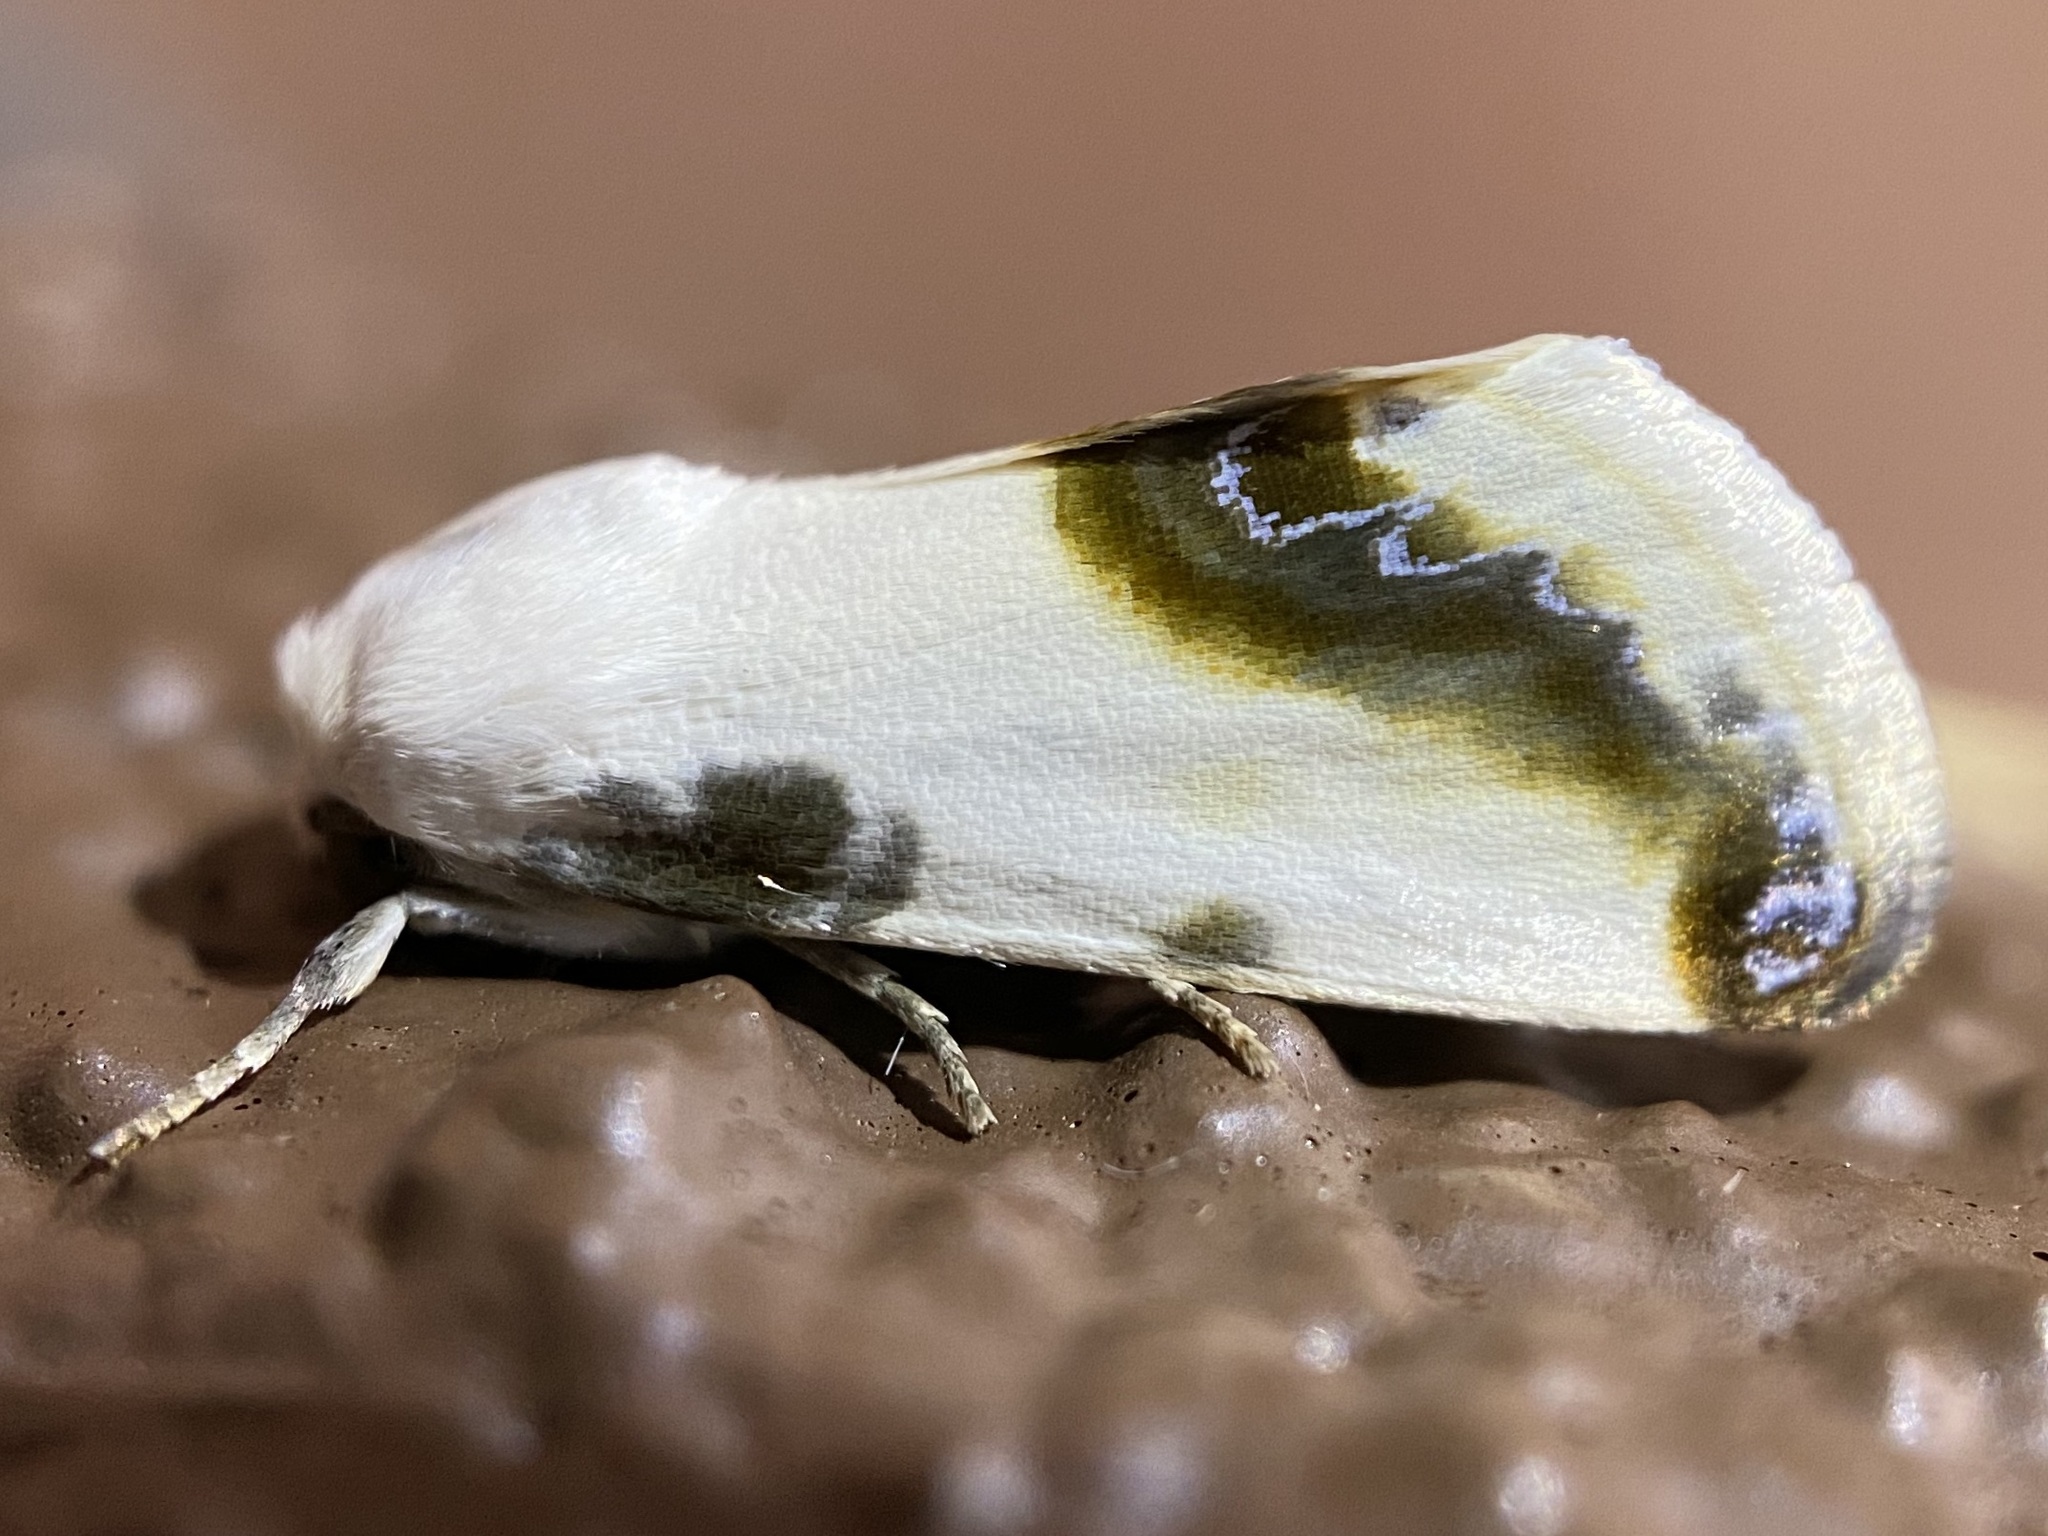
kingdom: Animalia
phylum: Arthropoda
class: Insecta
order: Lepidoptera
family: Noctuidae
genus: Acontia
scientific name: Acontia chea
